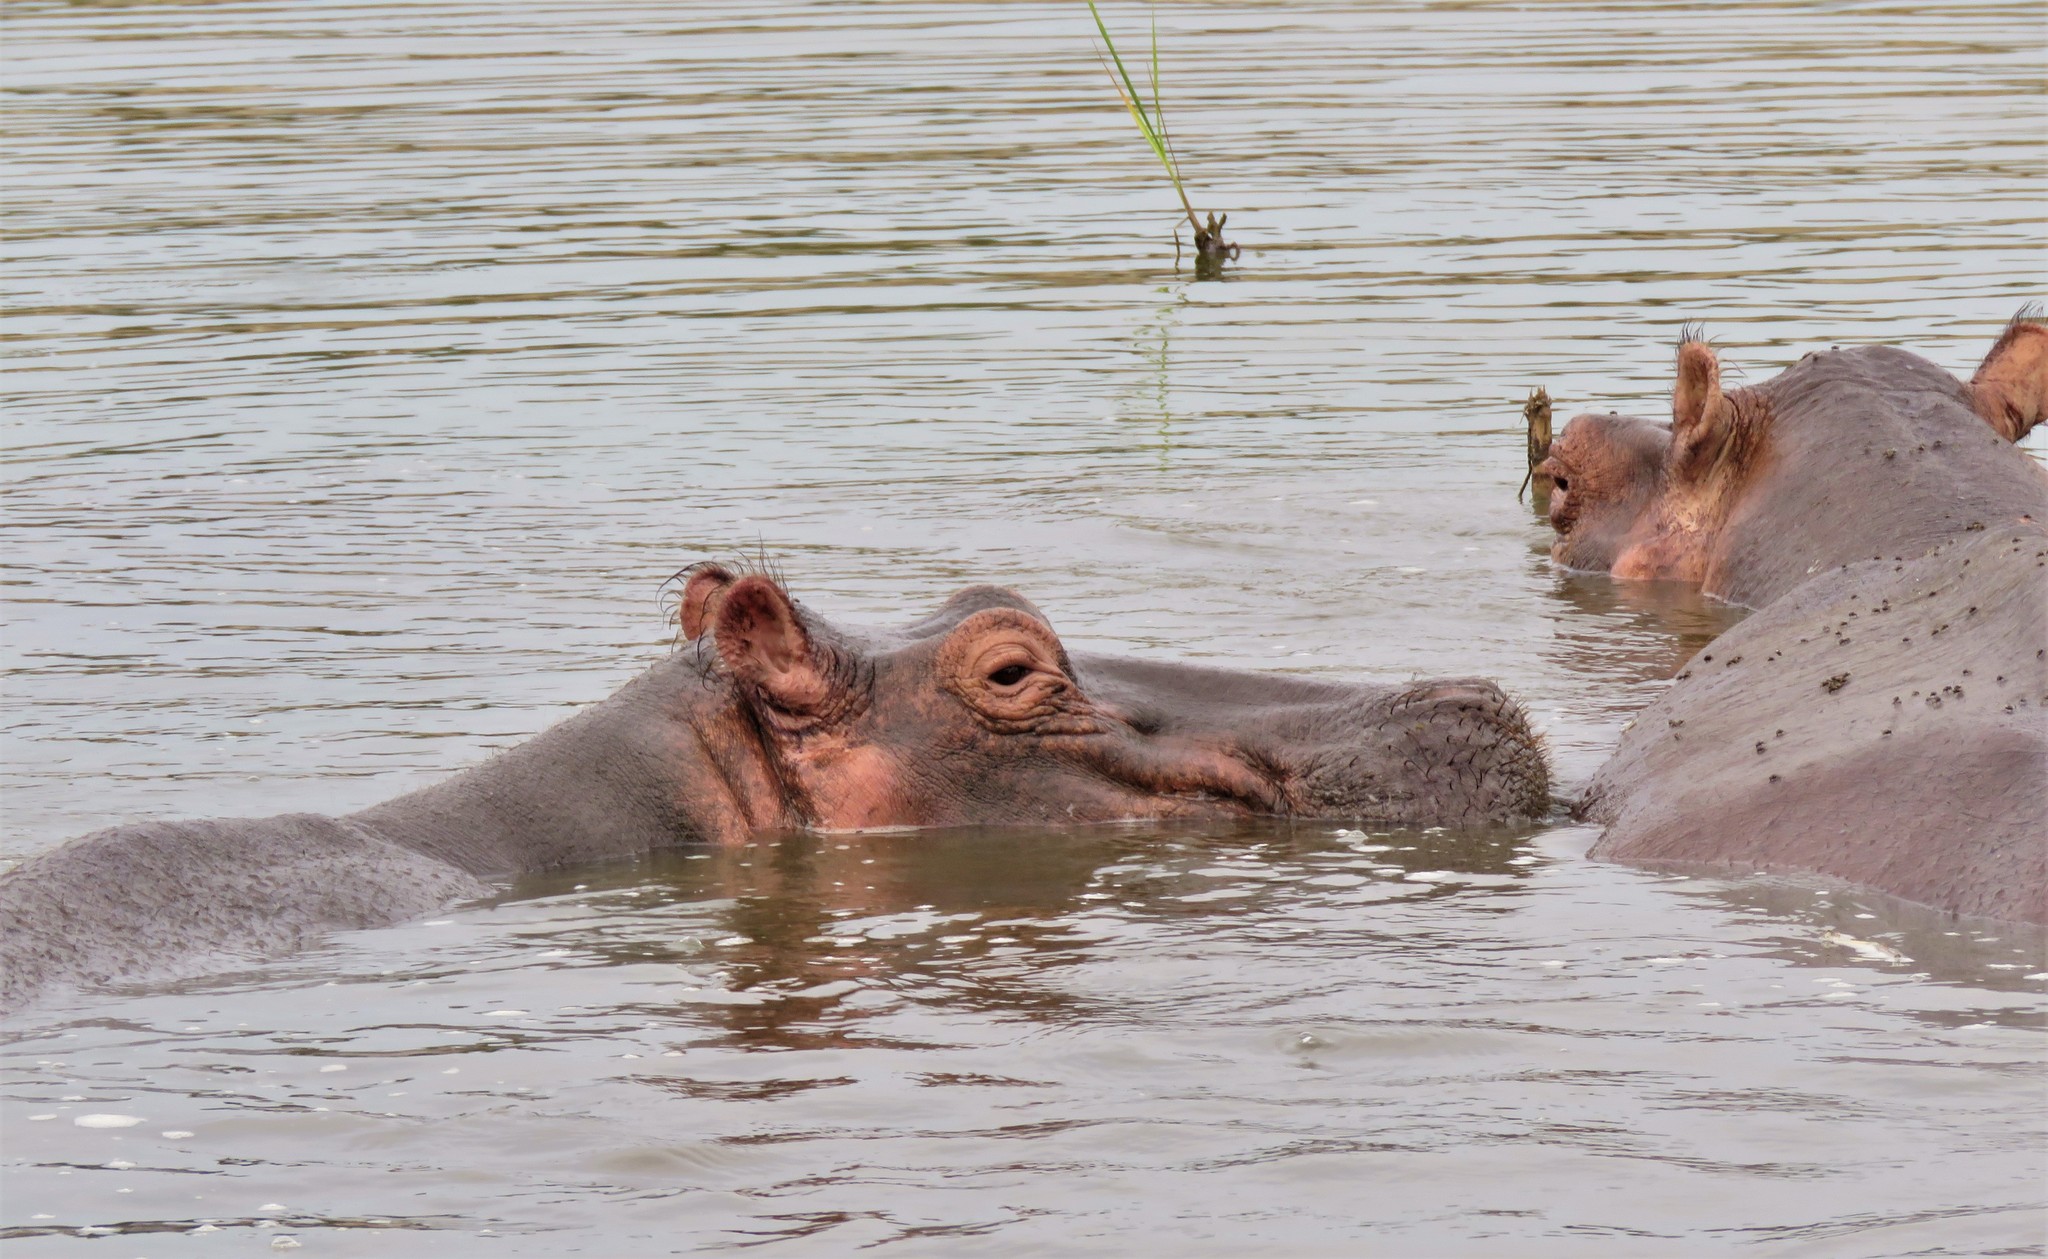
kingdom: Animalia
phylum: Chordata
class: Mammalia
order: Artiodactyla
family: Hippopotamidae
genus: Hippopotamus
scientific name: Hippopotamus amphibius
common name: Common hippopotamus
